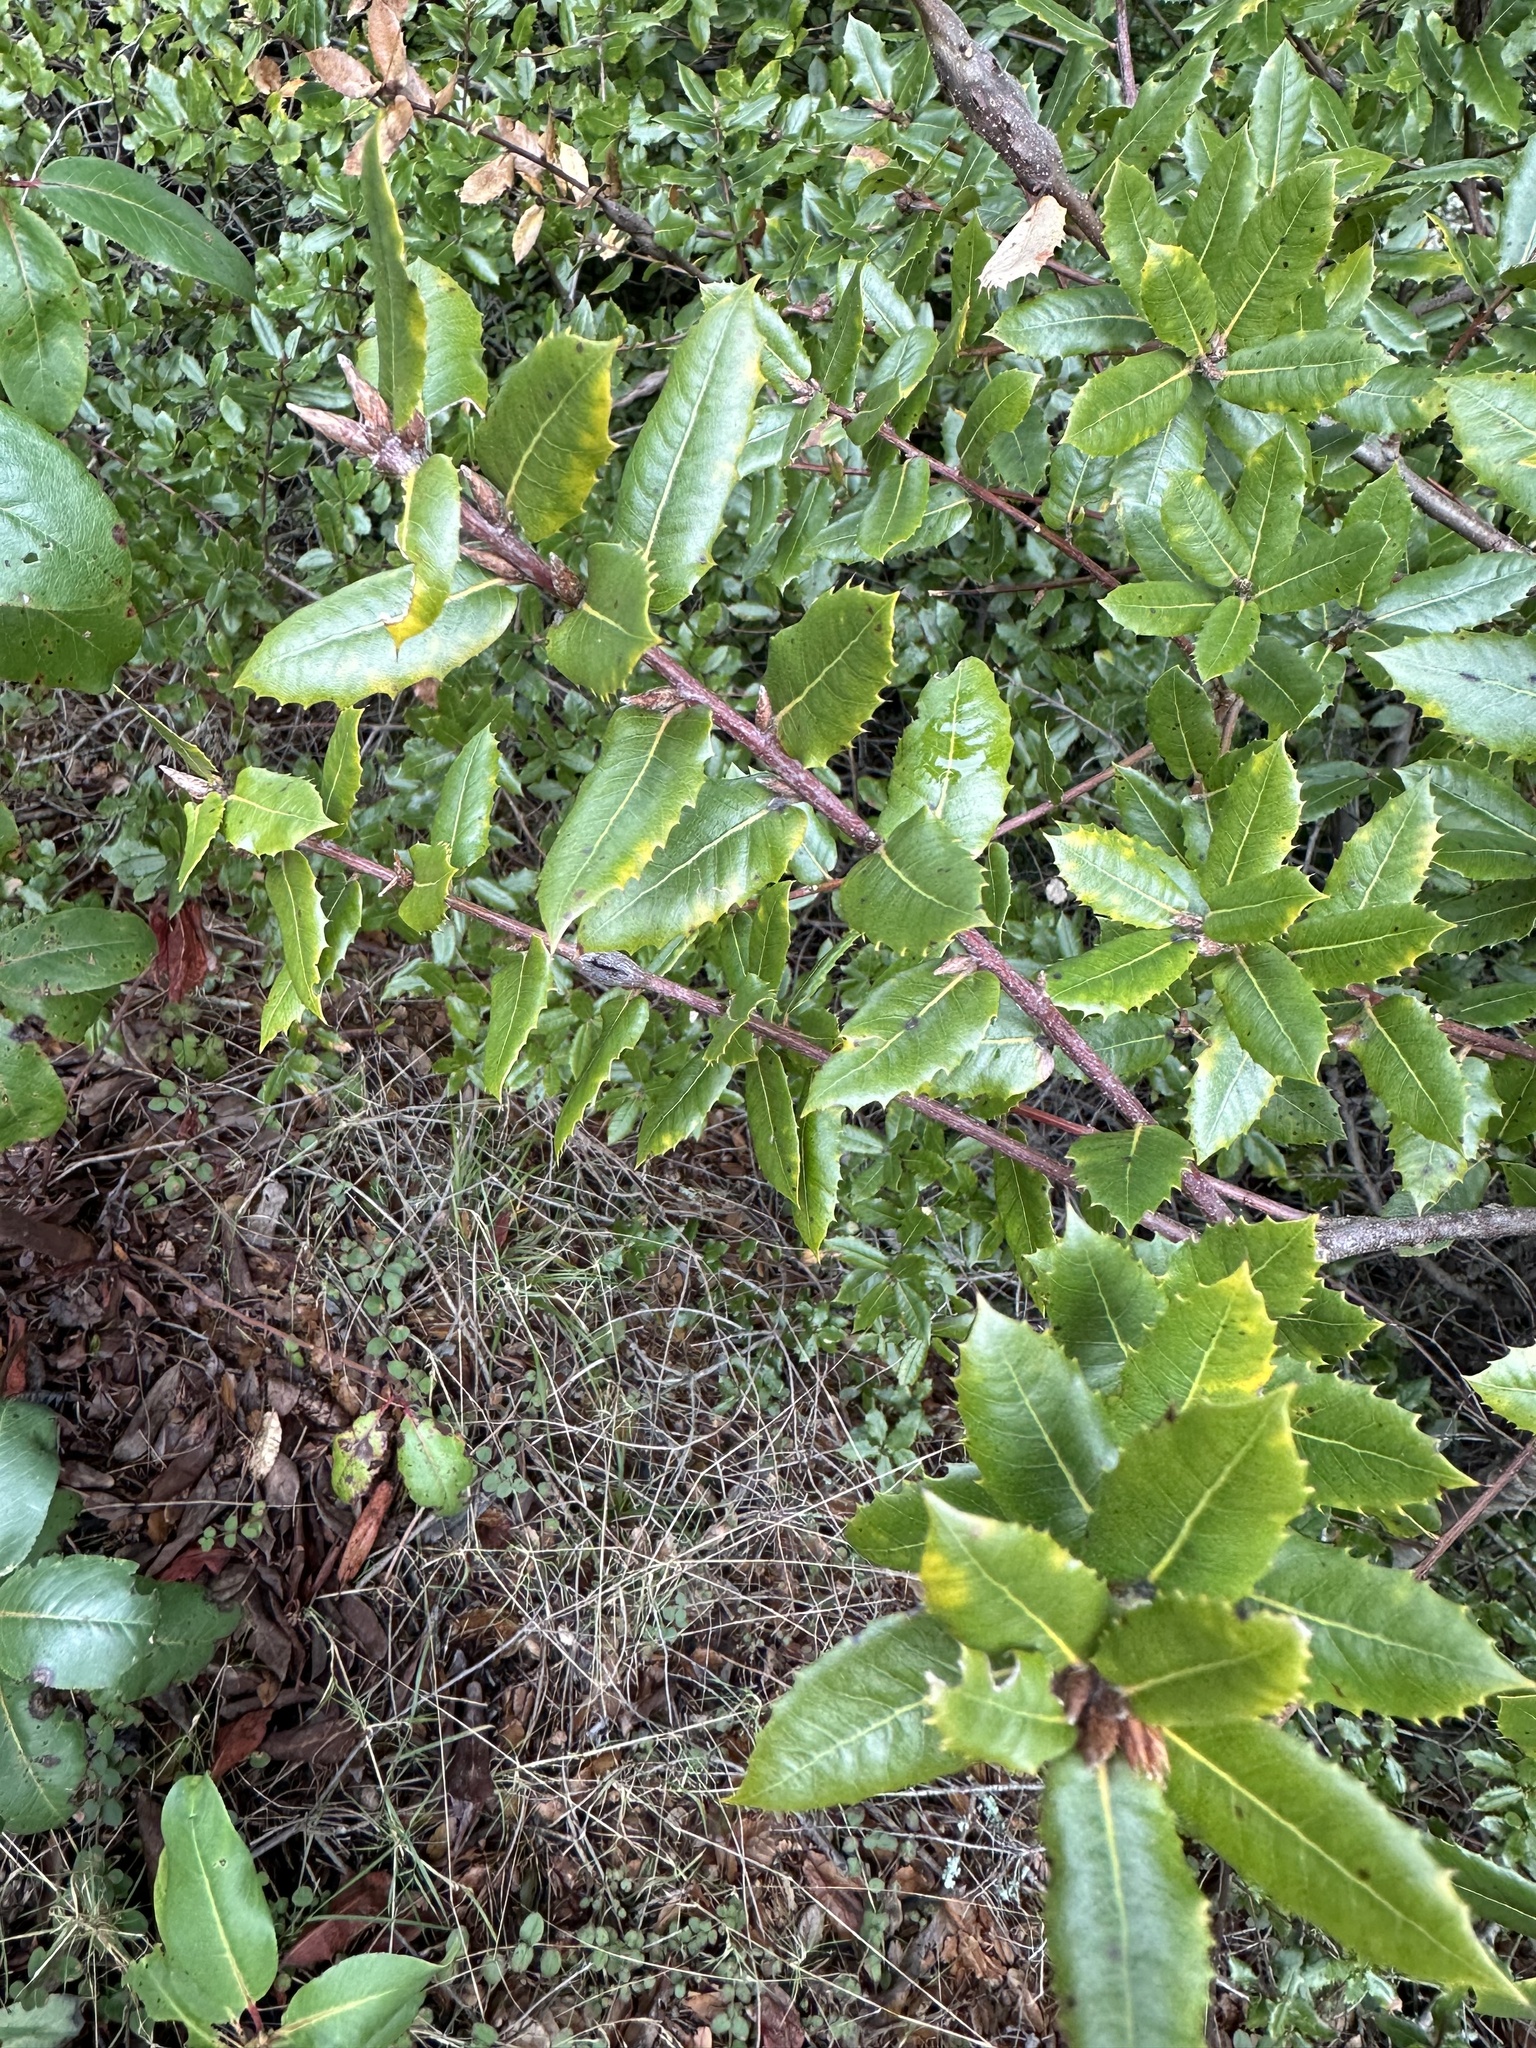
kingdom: Animalia
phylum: Arthropoda
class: Insecta
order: Hymenoptera
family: Cynipidae
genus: Callirhytis
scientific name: Callirhytis
